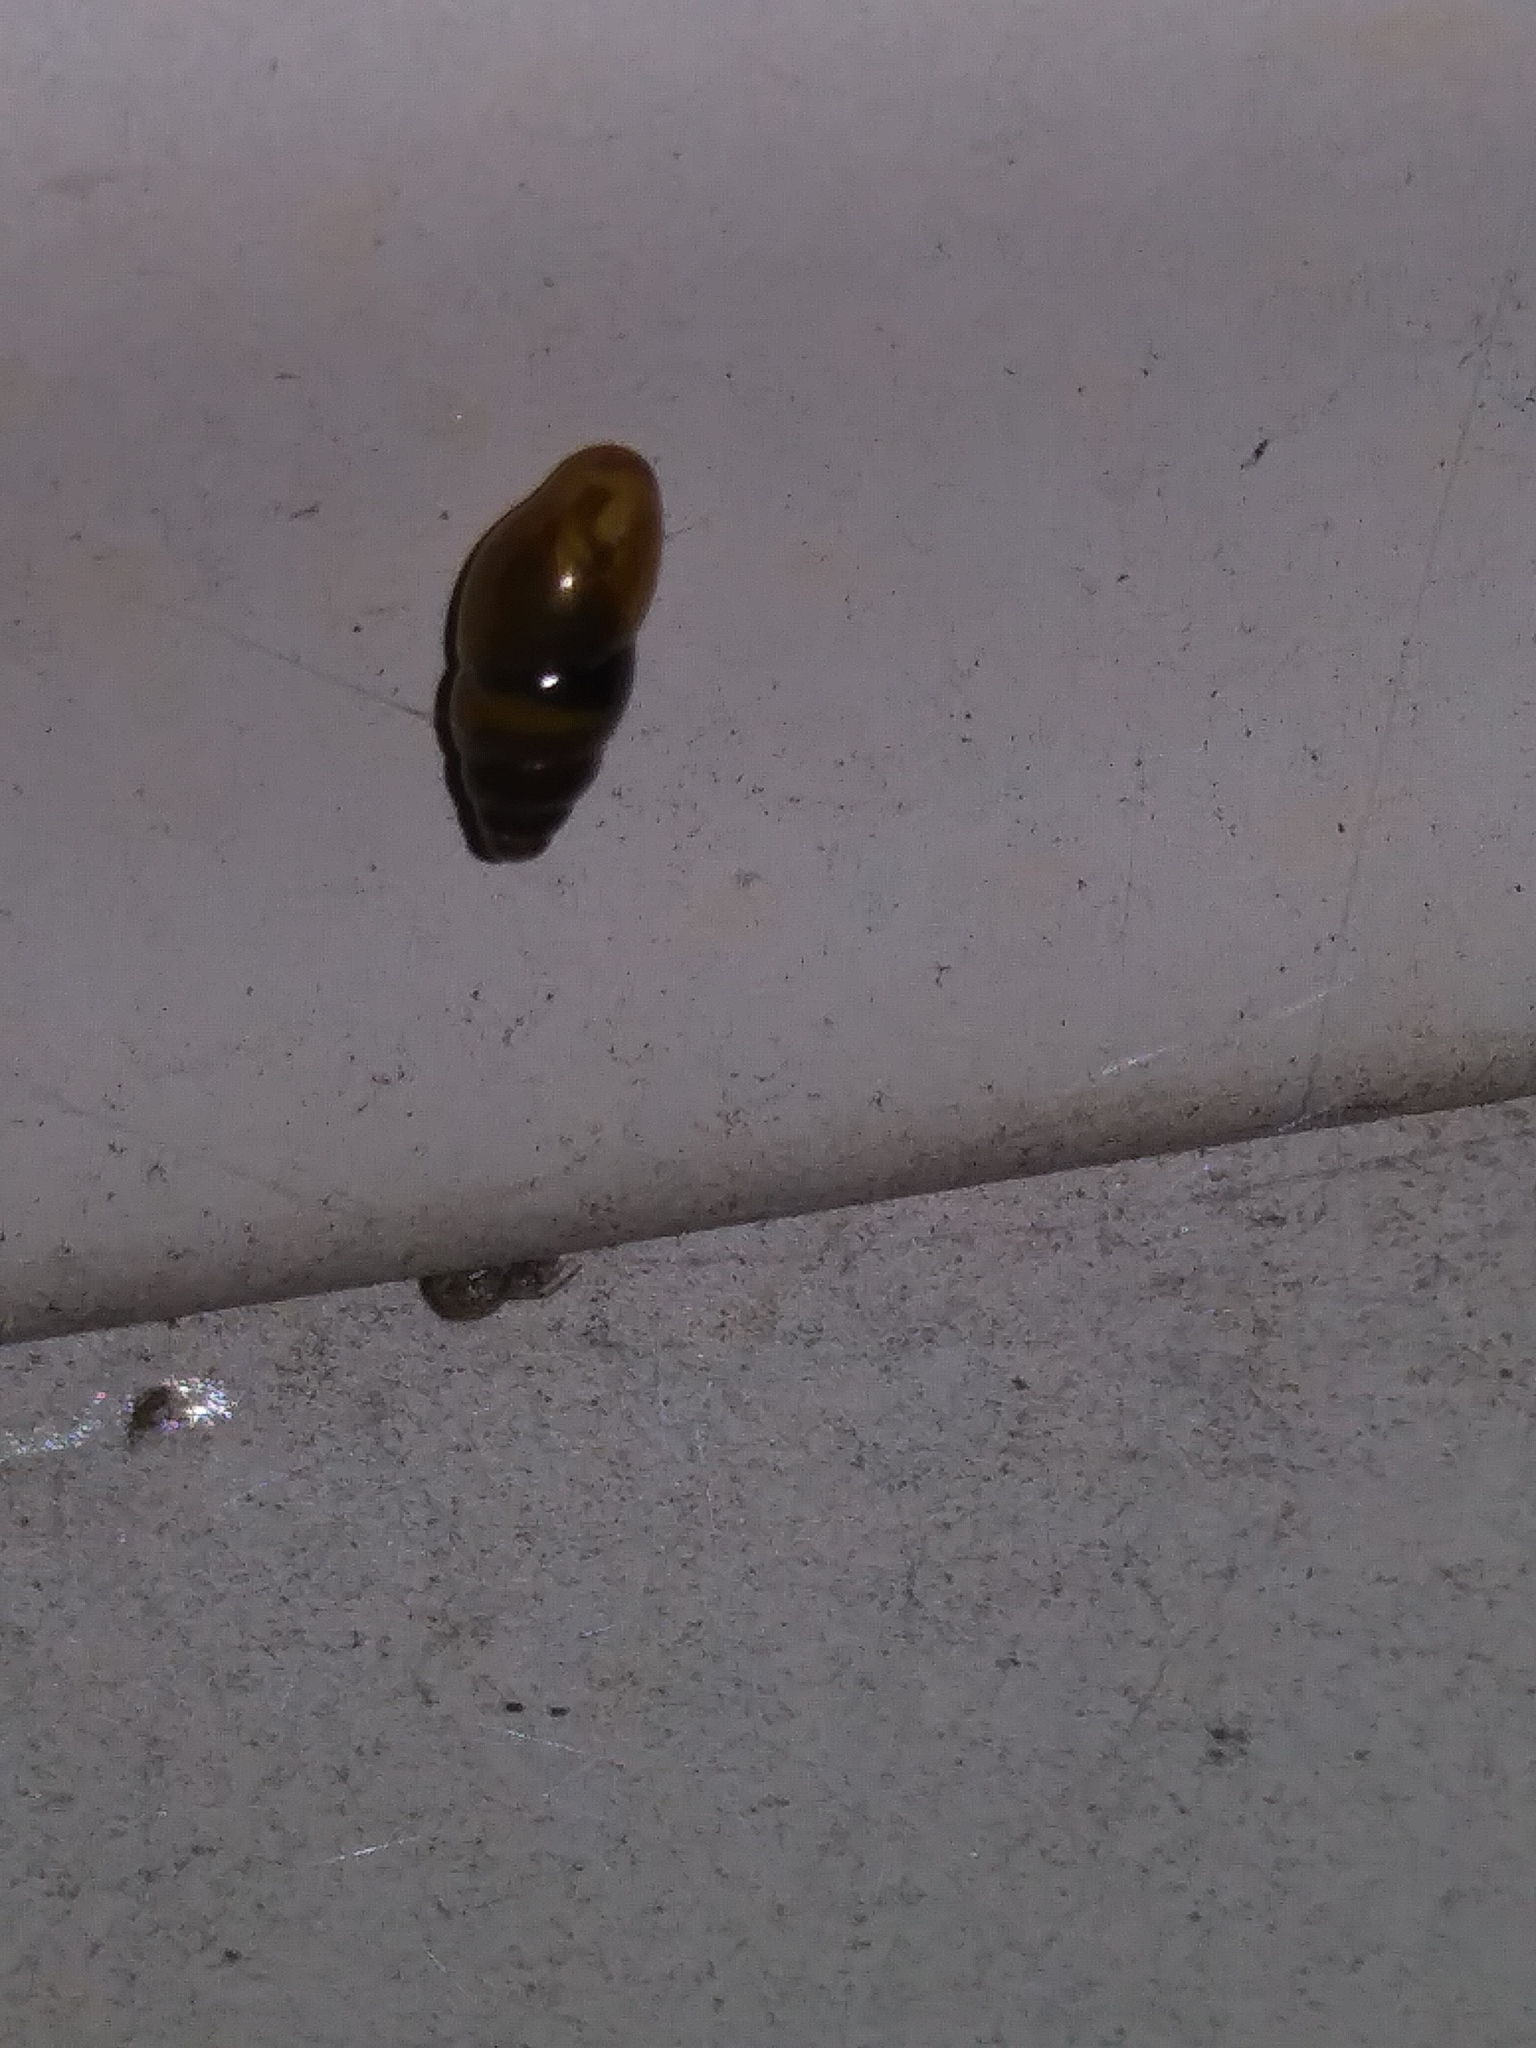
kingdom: Animalia
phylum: Mollusca
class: Gastropoda
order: Stylommatophora
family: Cochlicopidae
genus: Cochlicopa
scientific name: Cochlicopa lubrica
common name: Glossy pillar snail
